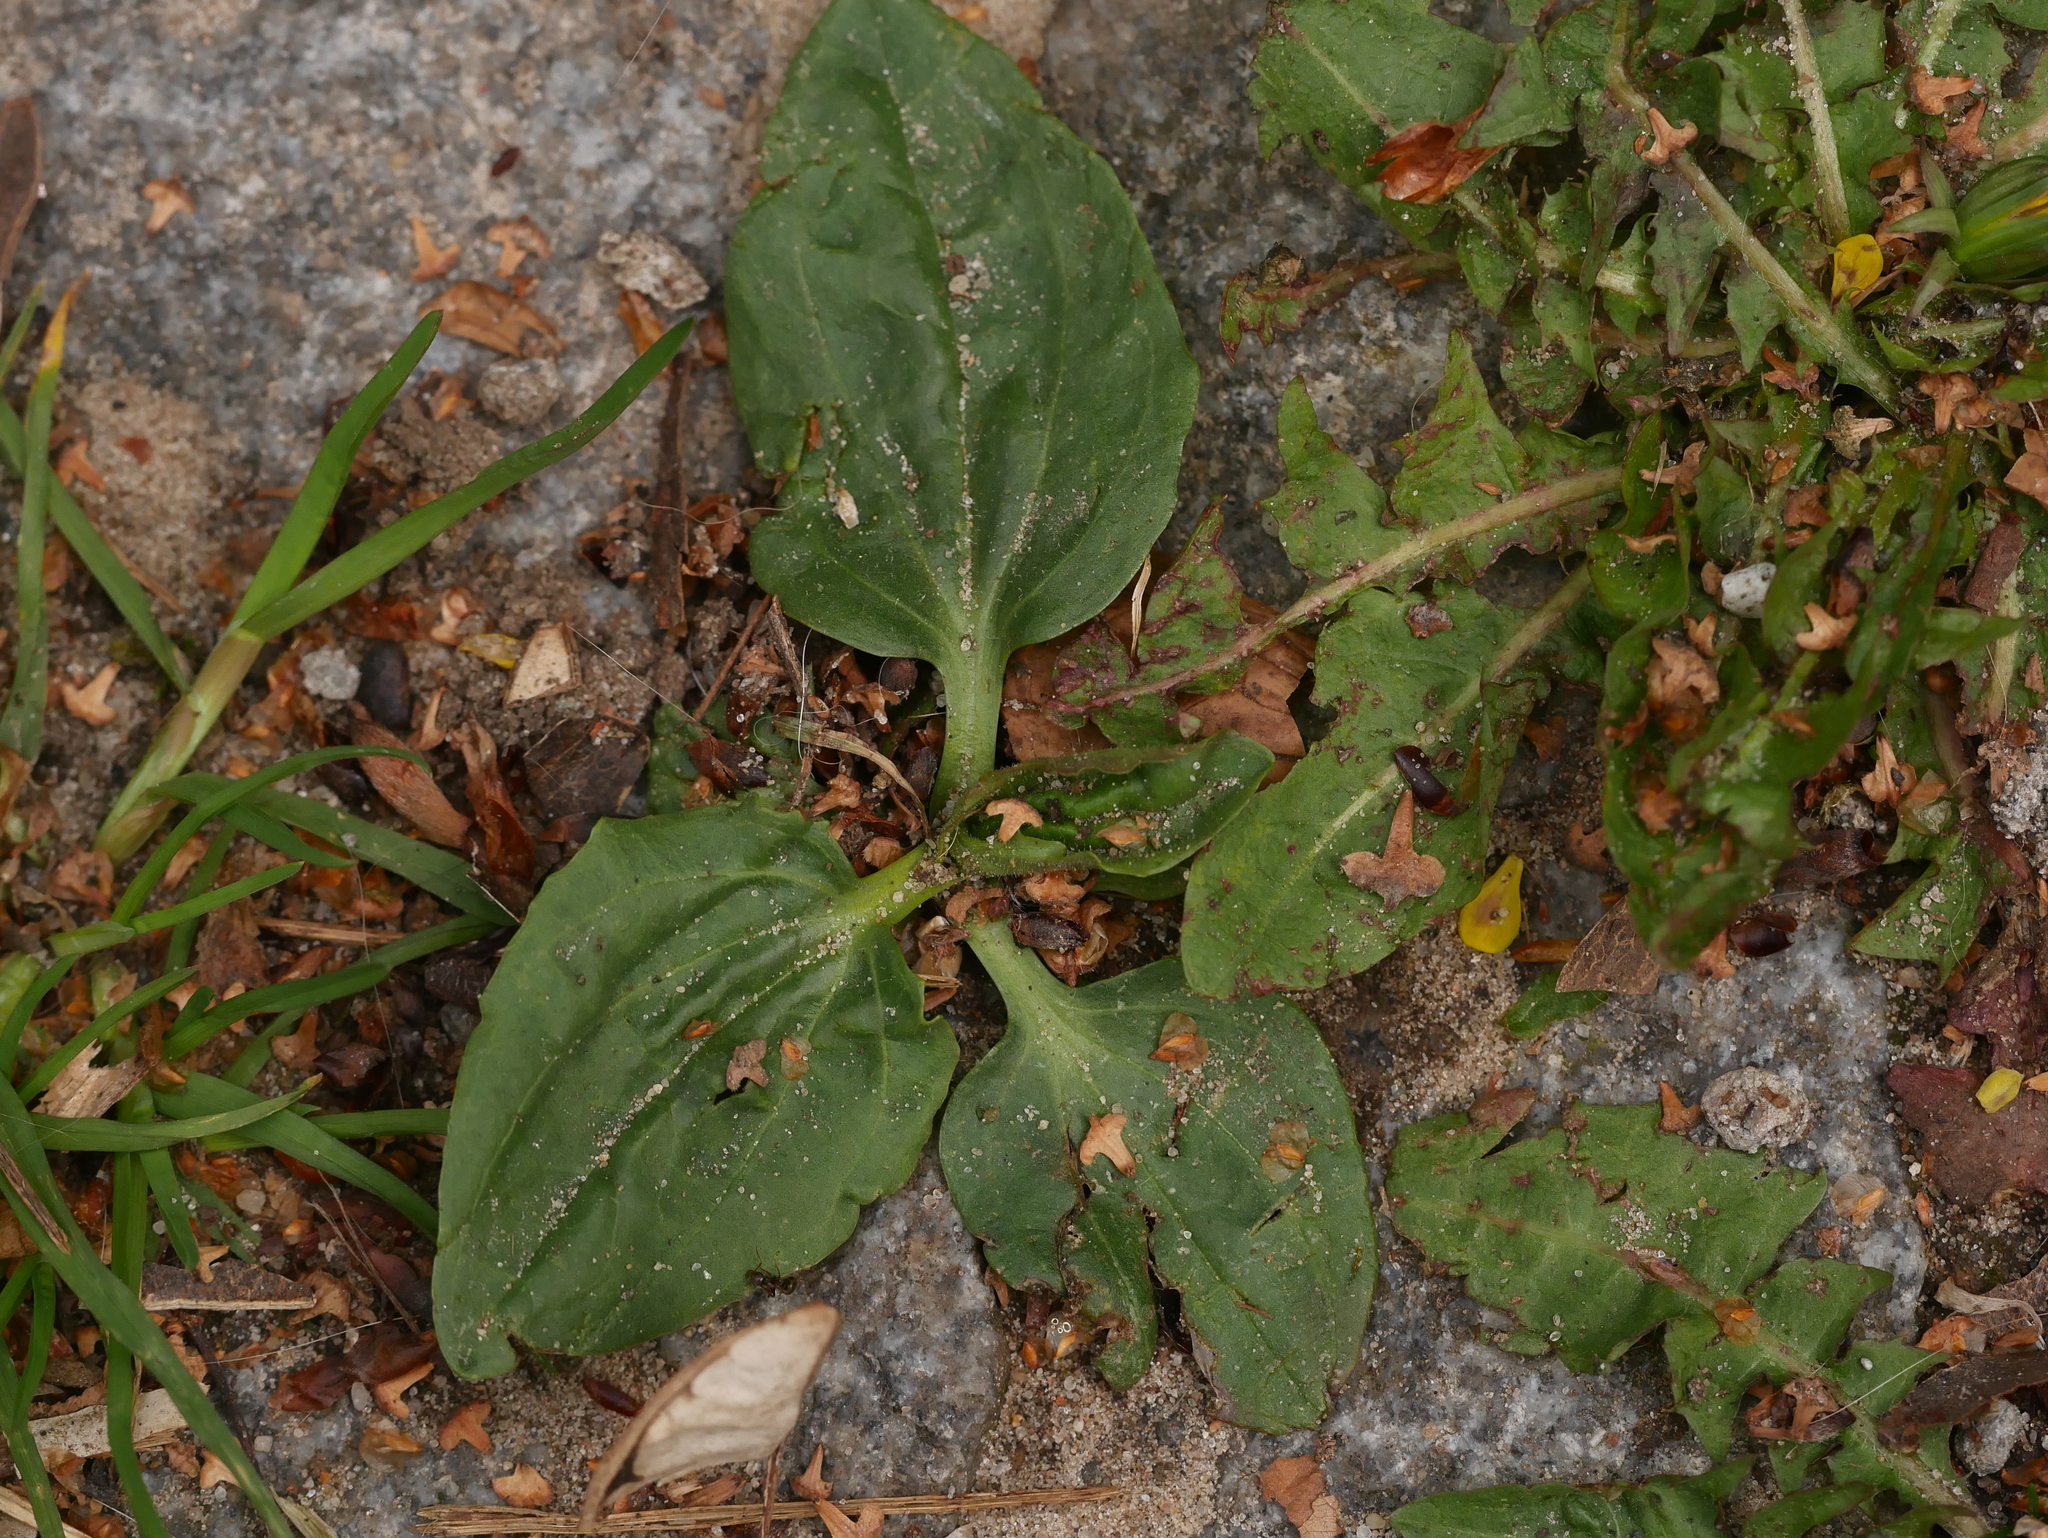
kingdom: Plantae
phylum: Tracheophyta
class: Magnoliopsida
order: Lamiales
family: Plantaginaceae
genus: Plantago
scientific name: Plantago major
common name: Common plantain
